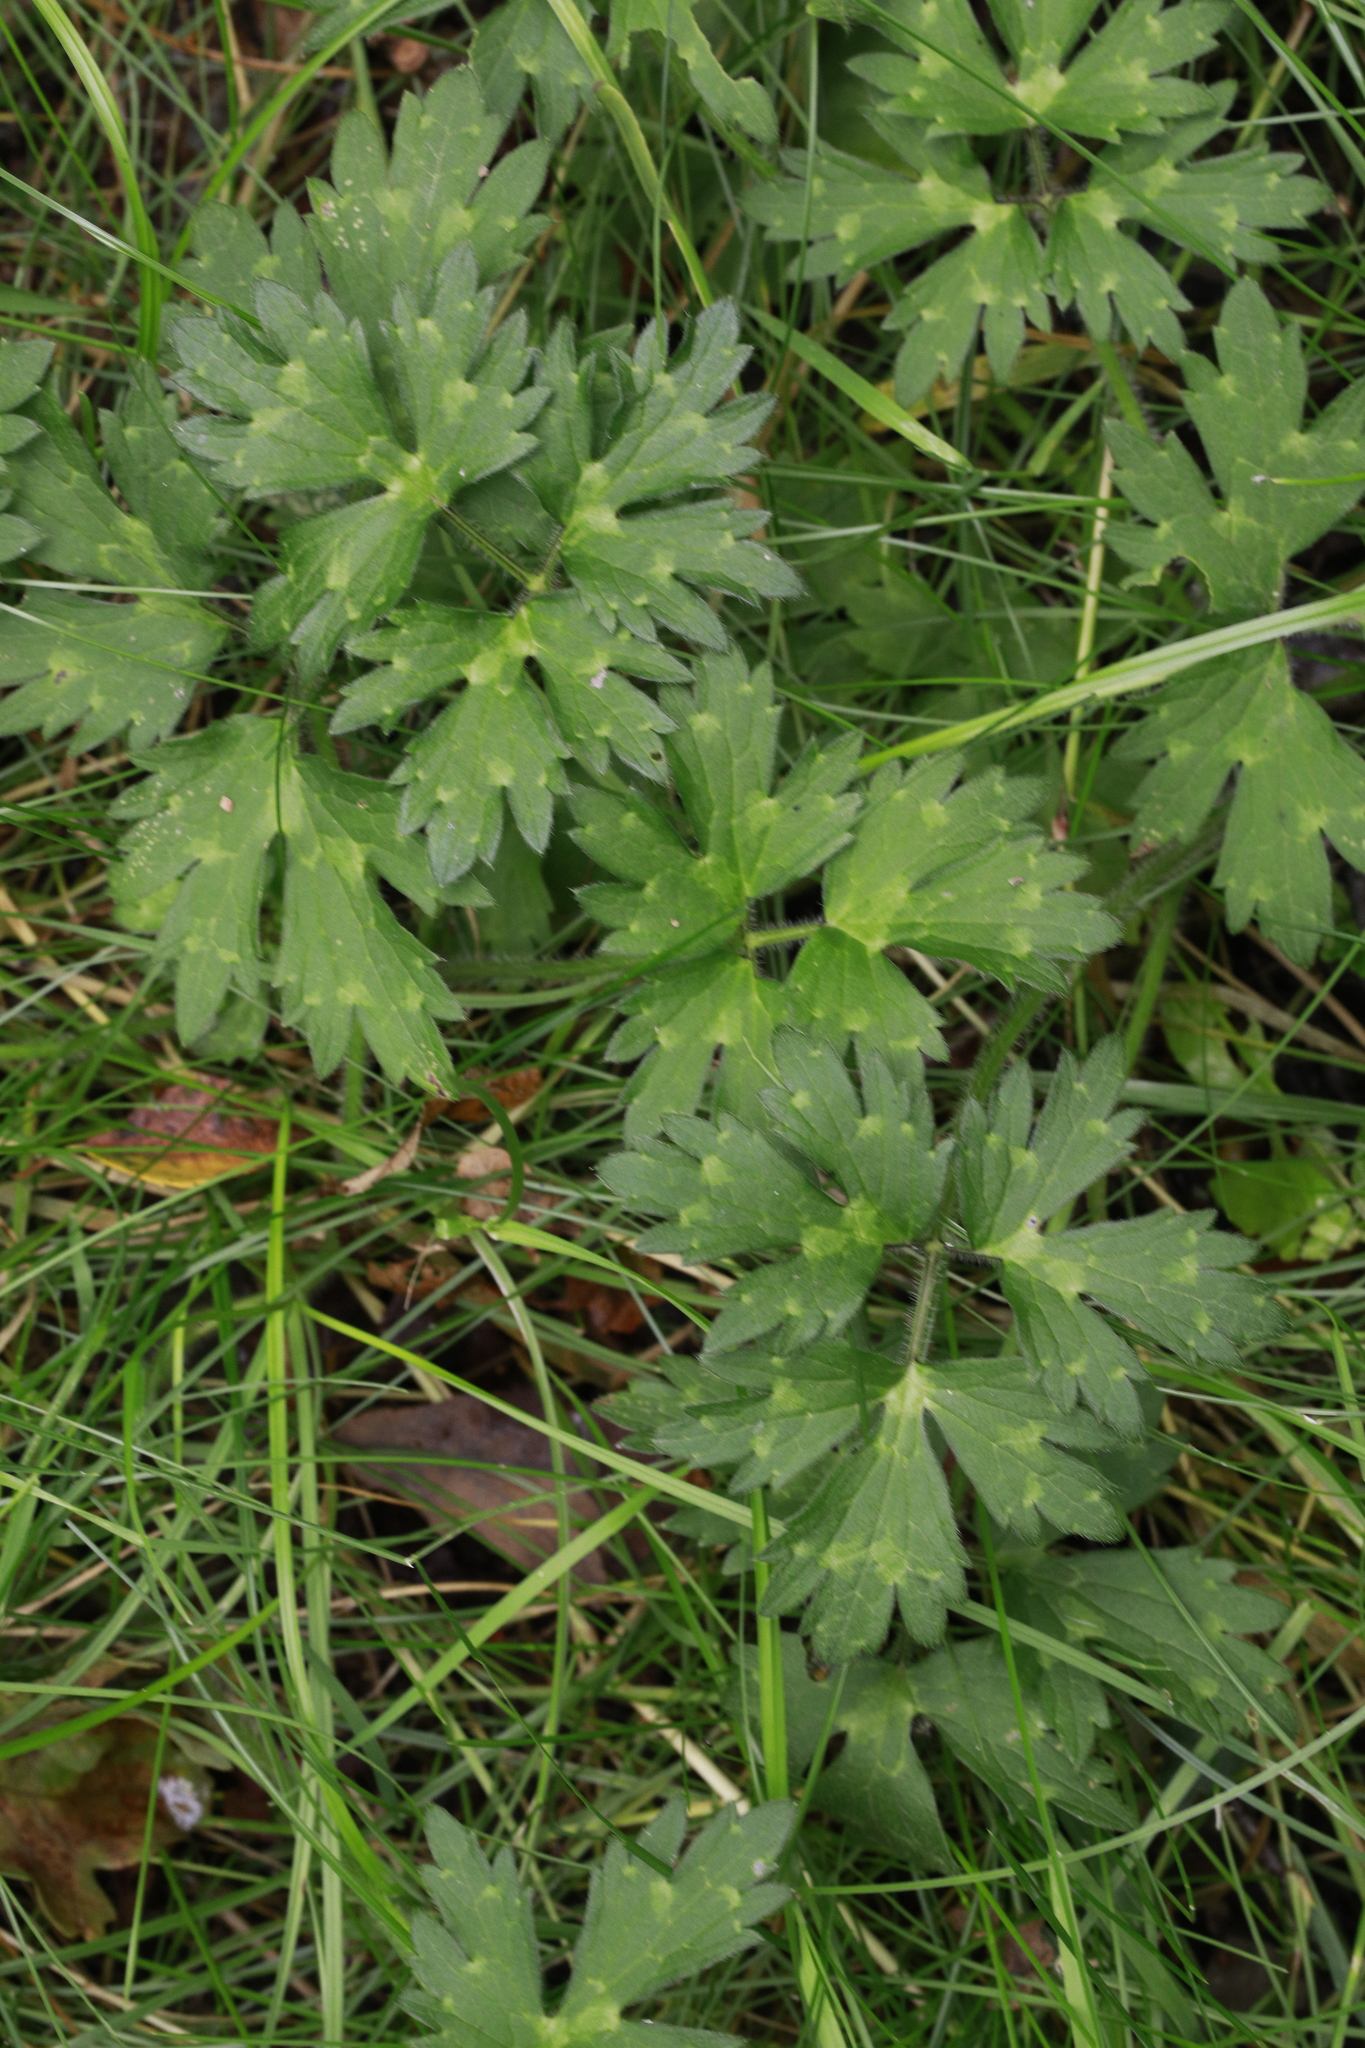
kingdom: Plantae
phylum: Tracheophyta
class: Magnoliopsida
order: Ranunculales
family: Ranunculaceae
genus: Ranunculus
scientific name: Ranunculus repens
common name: Creeping buttercup
